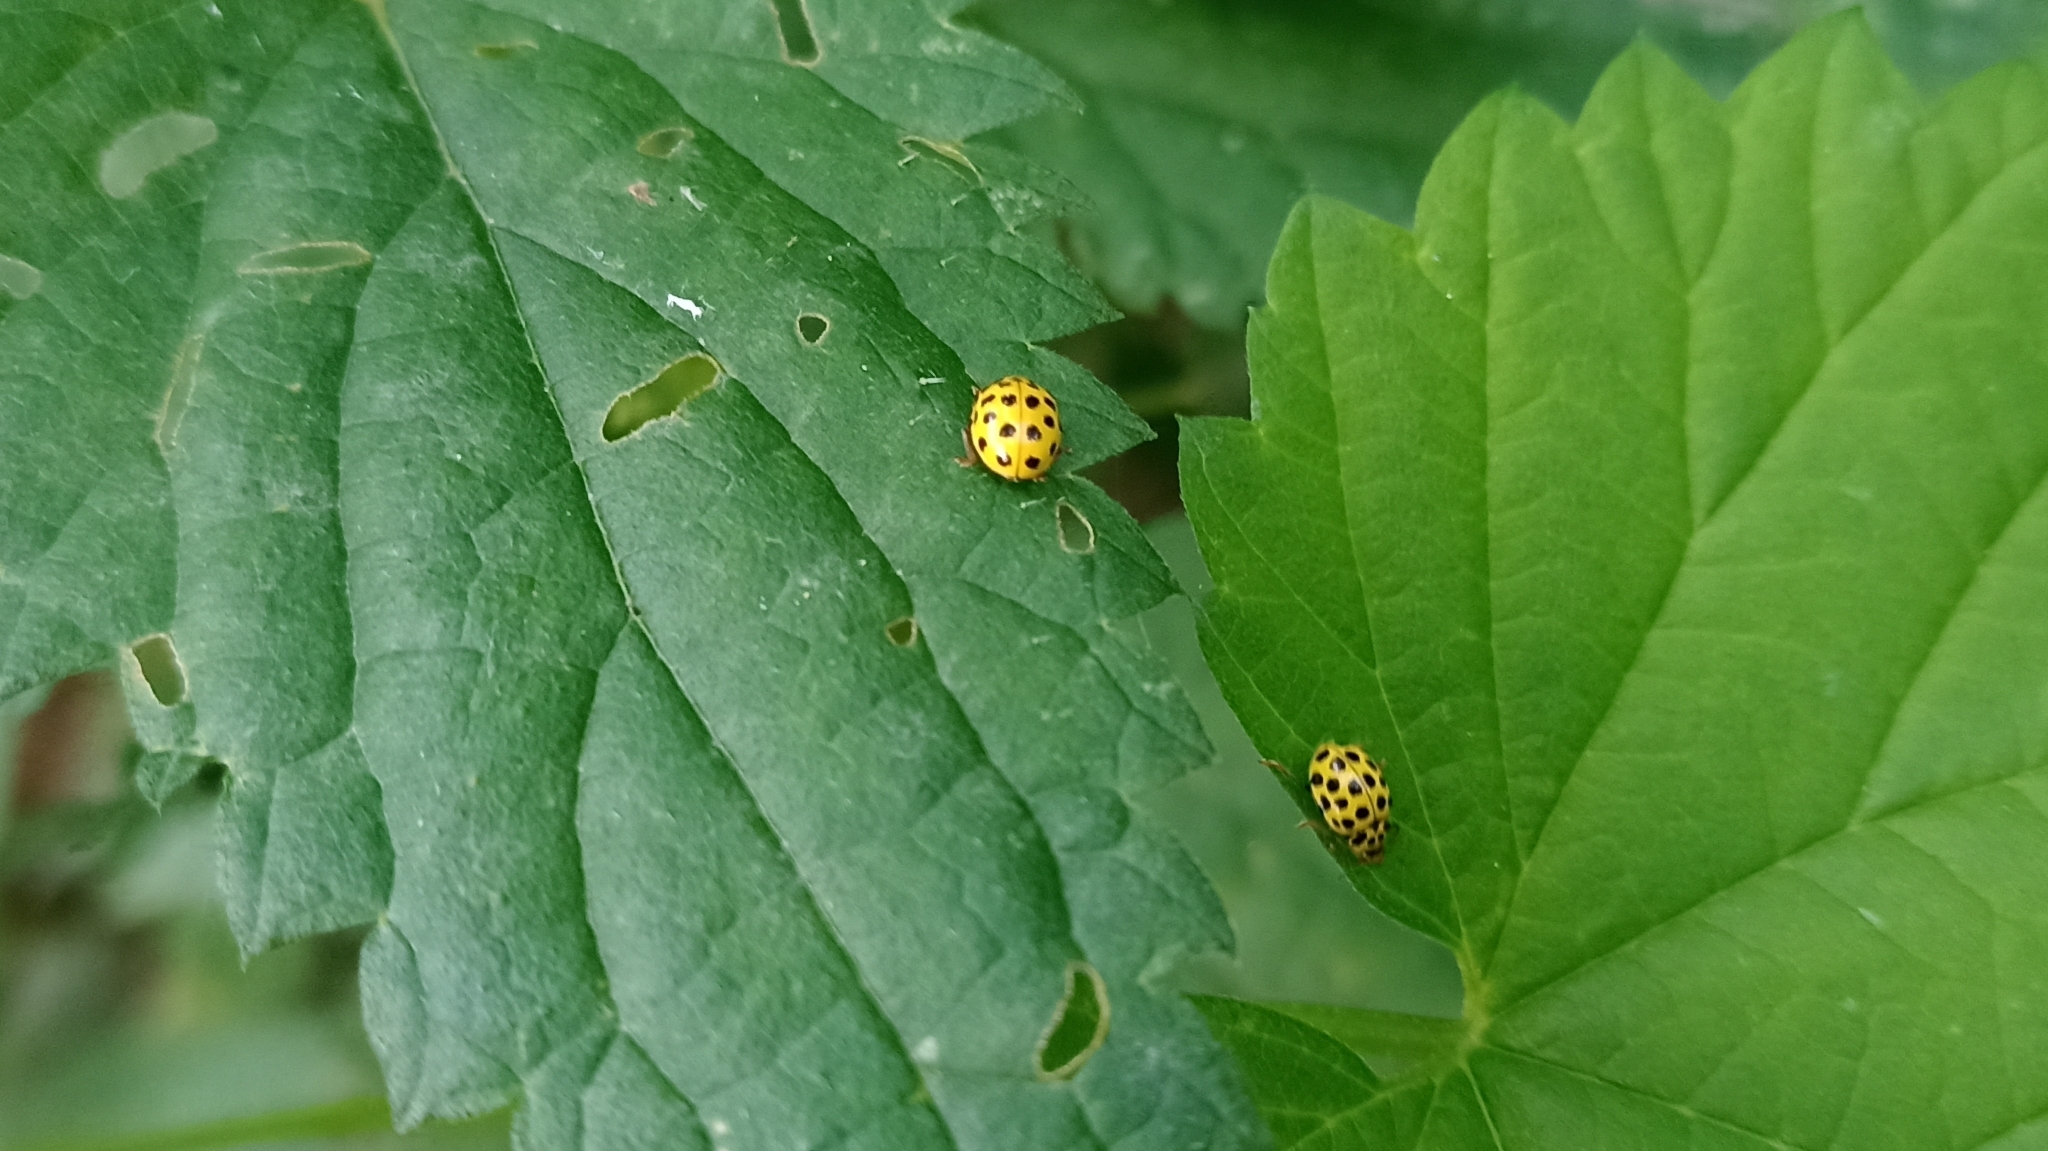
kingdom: Animalia
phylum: Arthropoda
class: Insecta
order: Coleoptera
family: Coccinellidae
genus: Psyllobora
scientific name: Psyllobora vigintiduopunctata
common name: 22-spot ladybird
